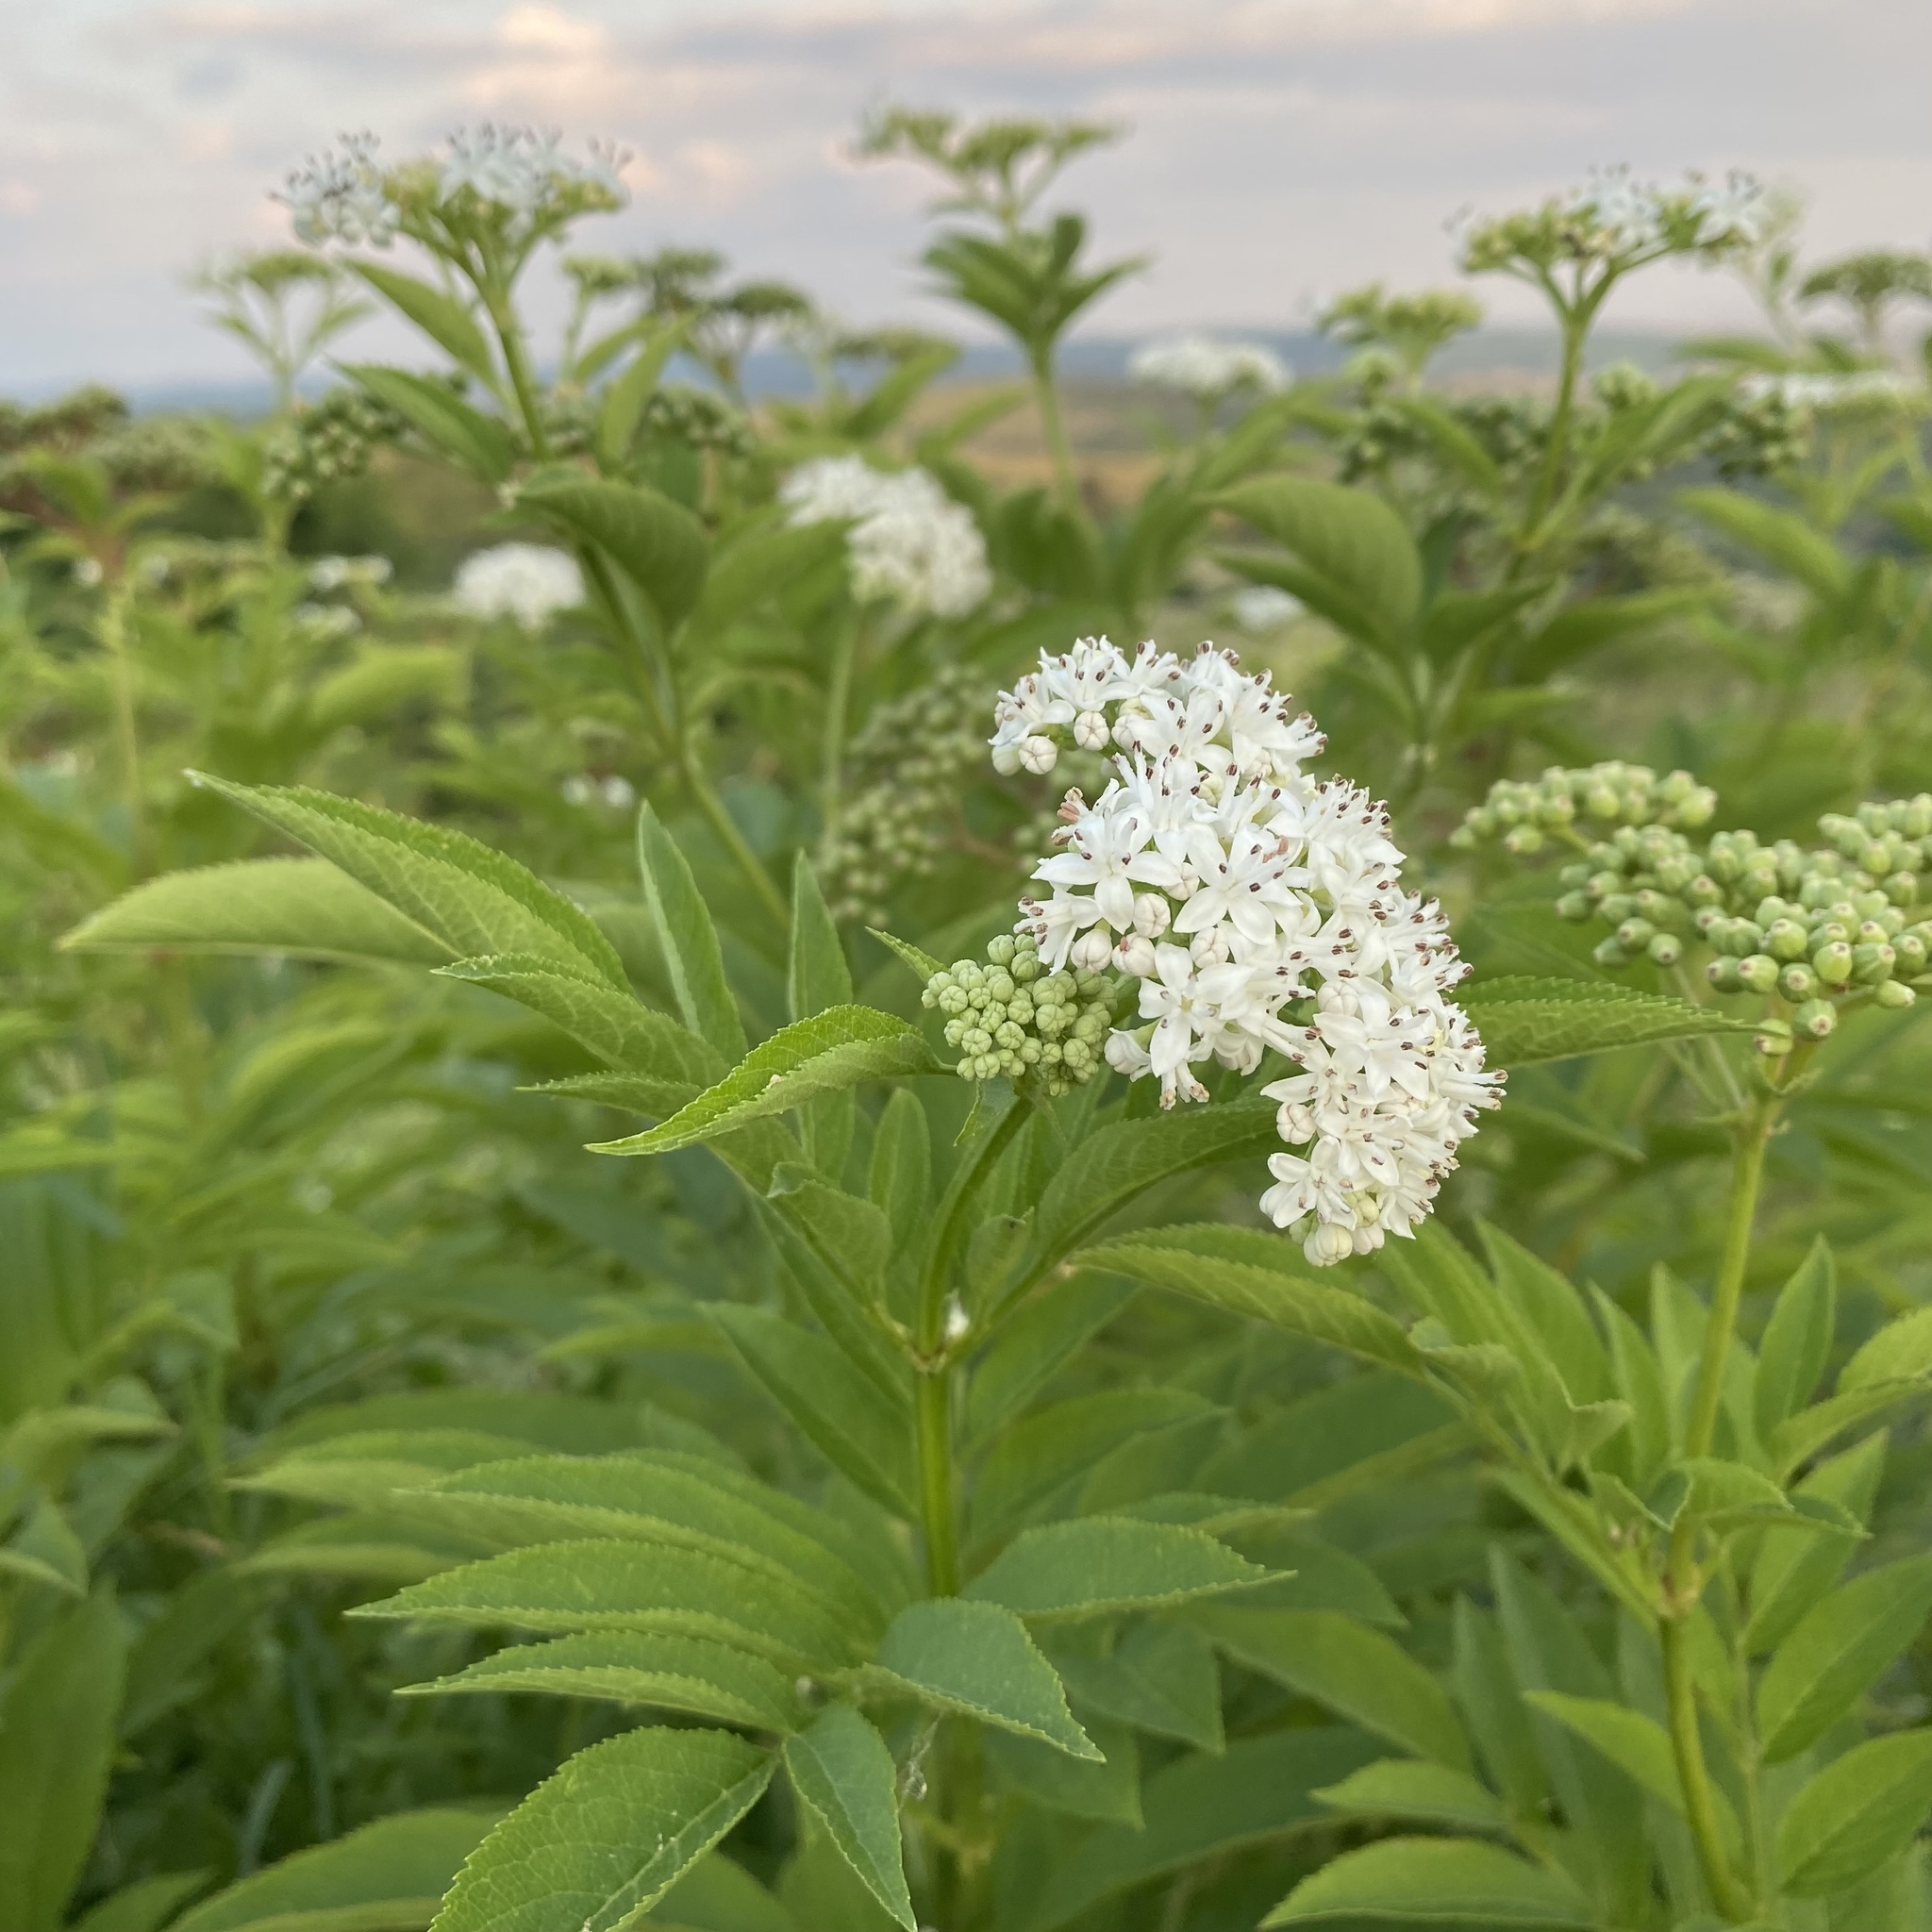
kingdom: Plantae
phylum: Tracheophyta
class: Magnoliopsida
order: Dipsacales
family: Viburnaceae
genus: Sambucus
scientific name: Sambucus ebulus
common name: Dwarf elder
